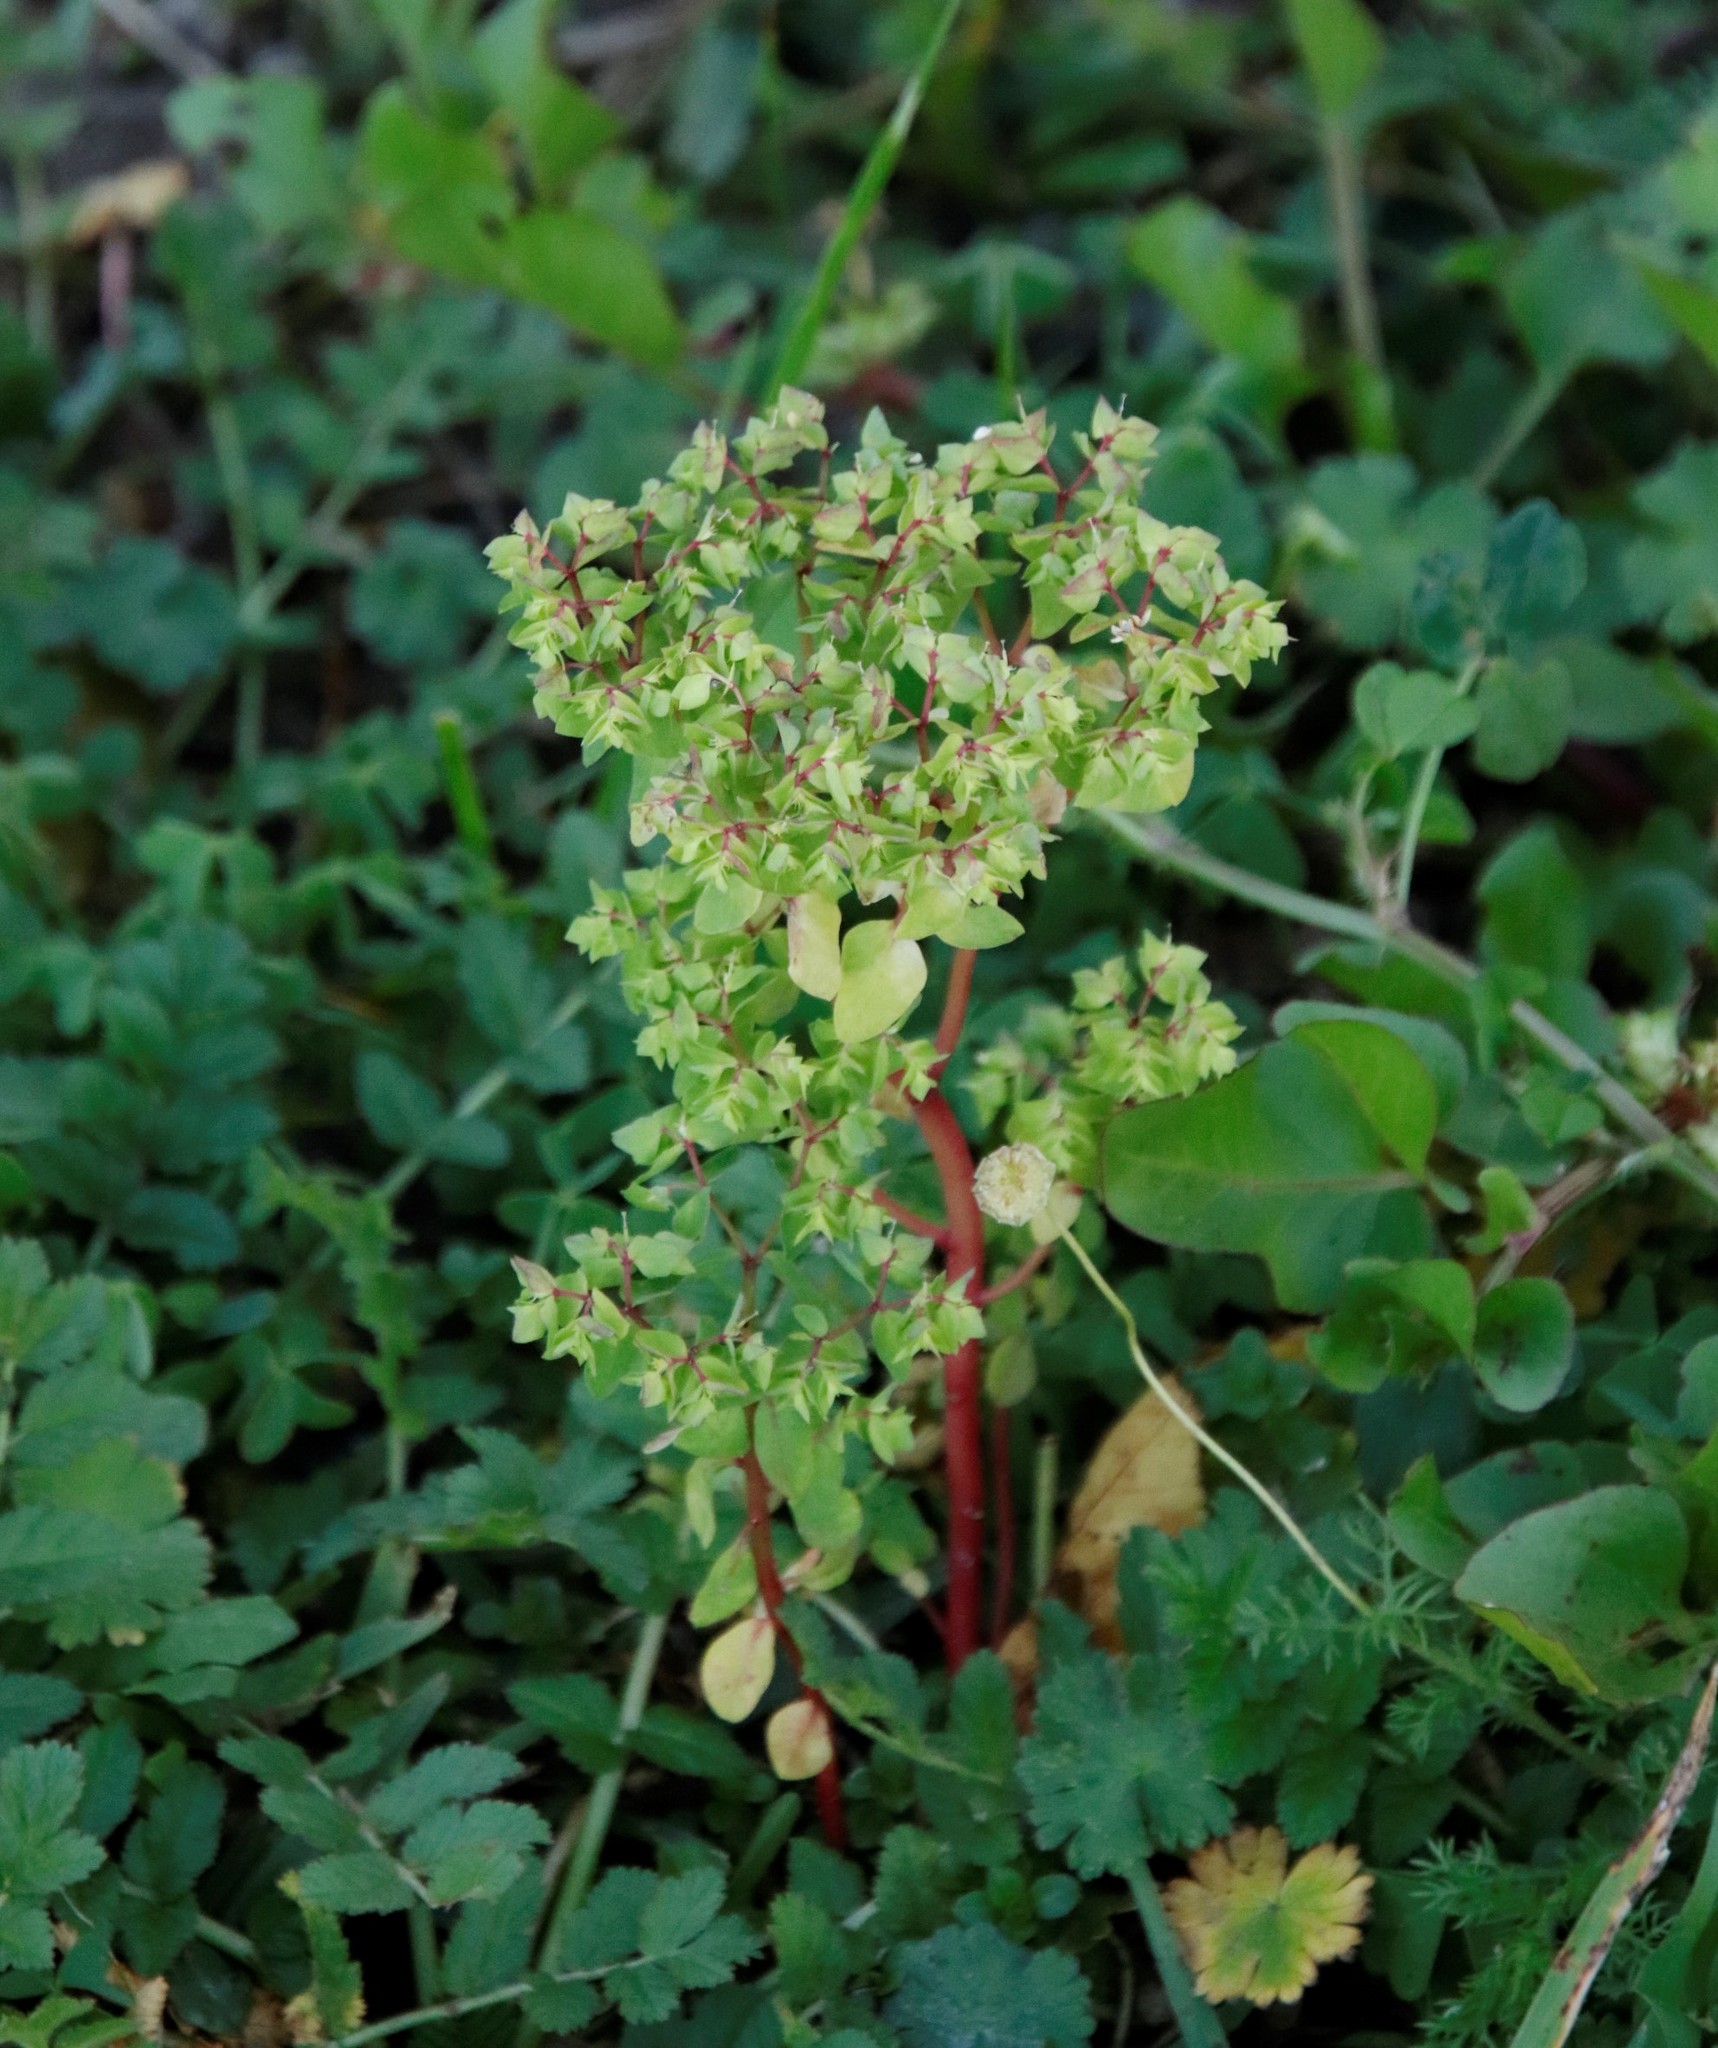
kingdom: Plantae
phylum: Tracheophyta
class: Magnoliopsida
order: Malpighiales
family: Euphorbiaceae
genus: Euphorbia
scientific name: Euphorbia peplus
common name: Petty spurge
